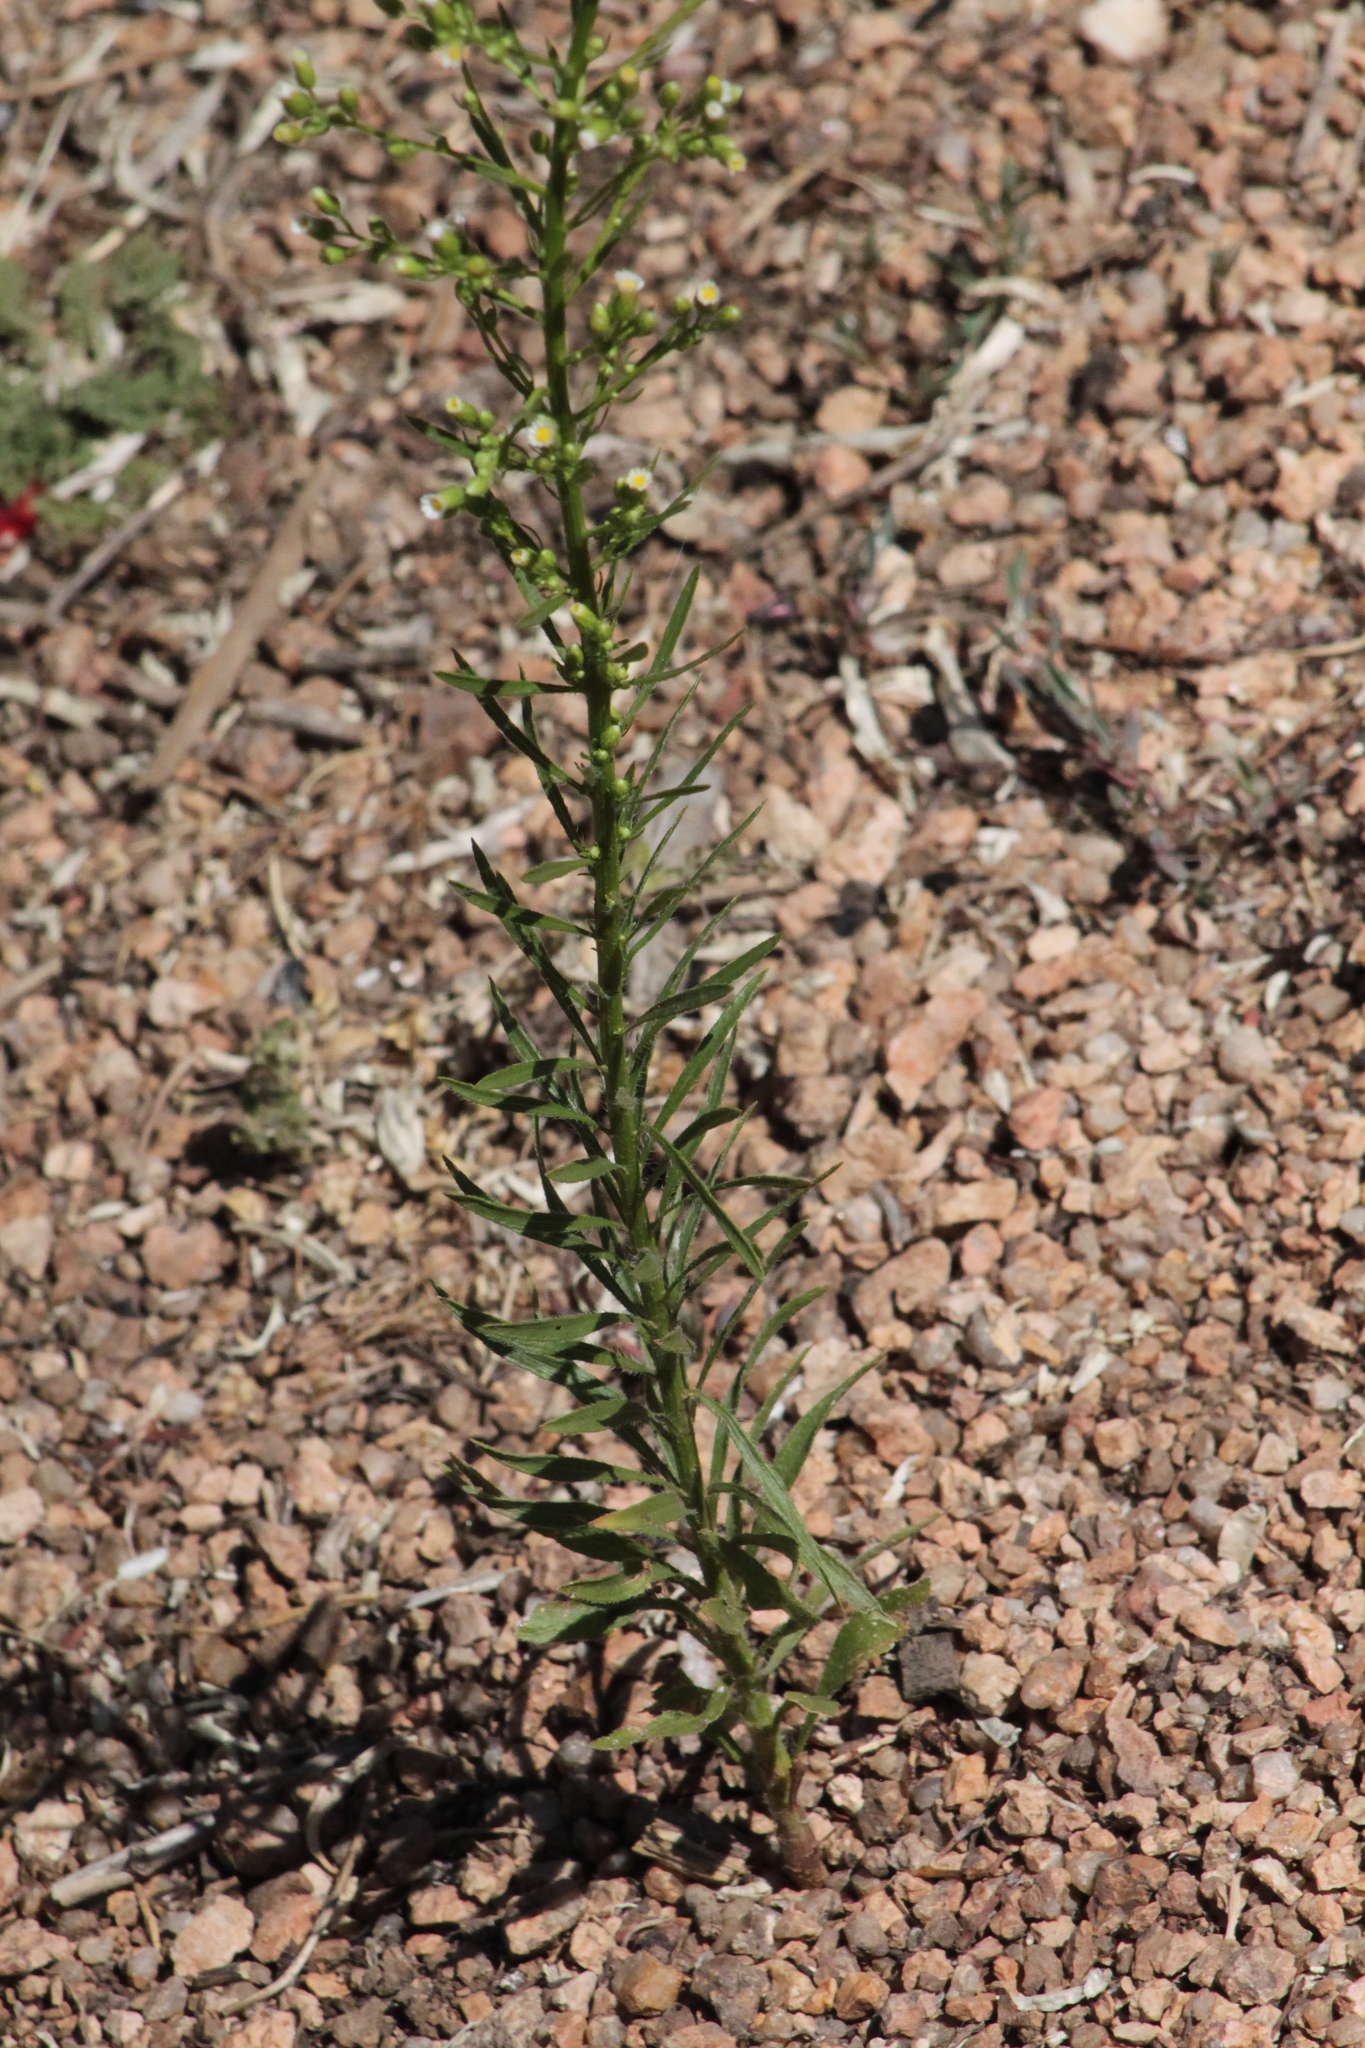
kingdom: Plantae
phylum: Tracheophyta
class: Magnoliopsida
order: Asterales
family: Asteraceae
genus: Erigeron
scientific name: Erigeron canadensis
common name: Canadian fleabane
